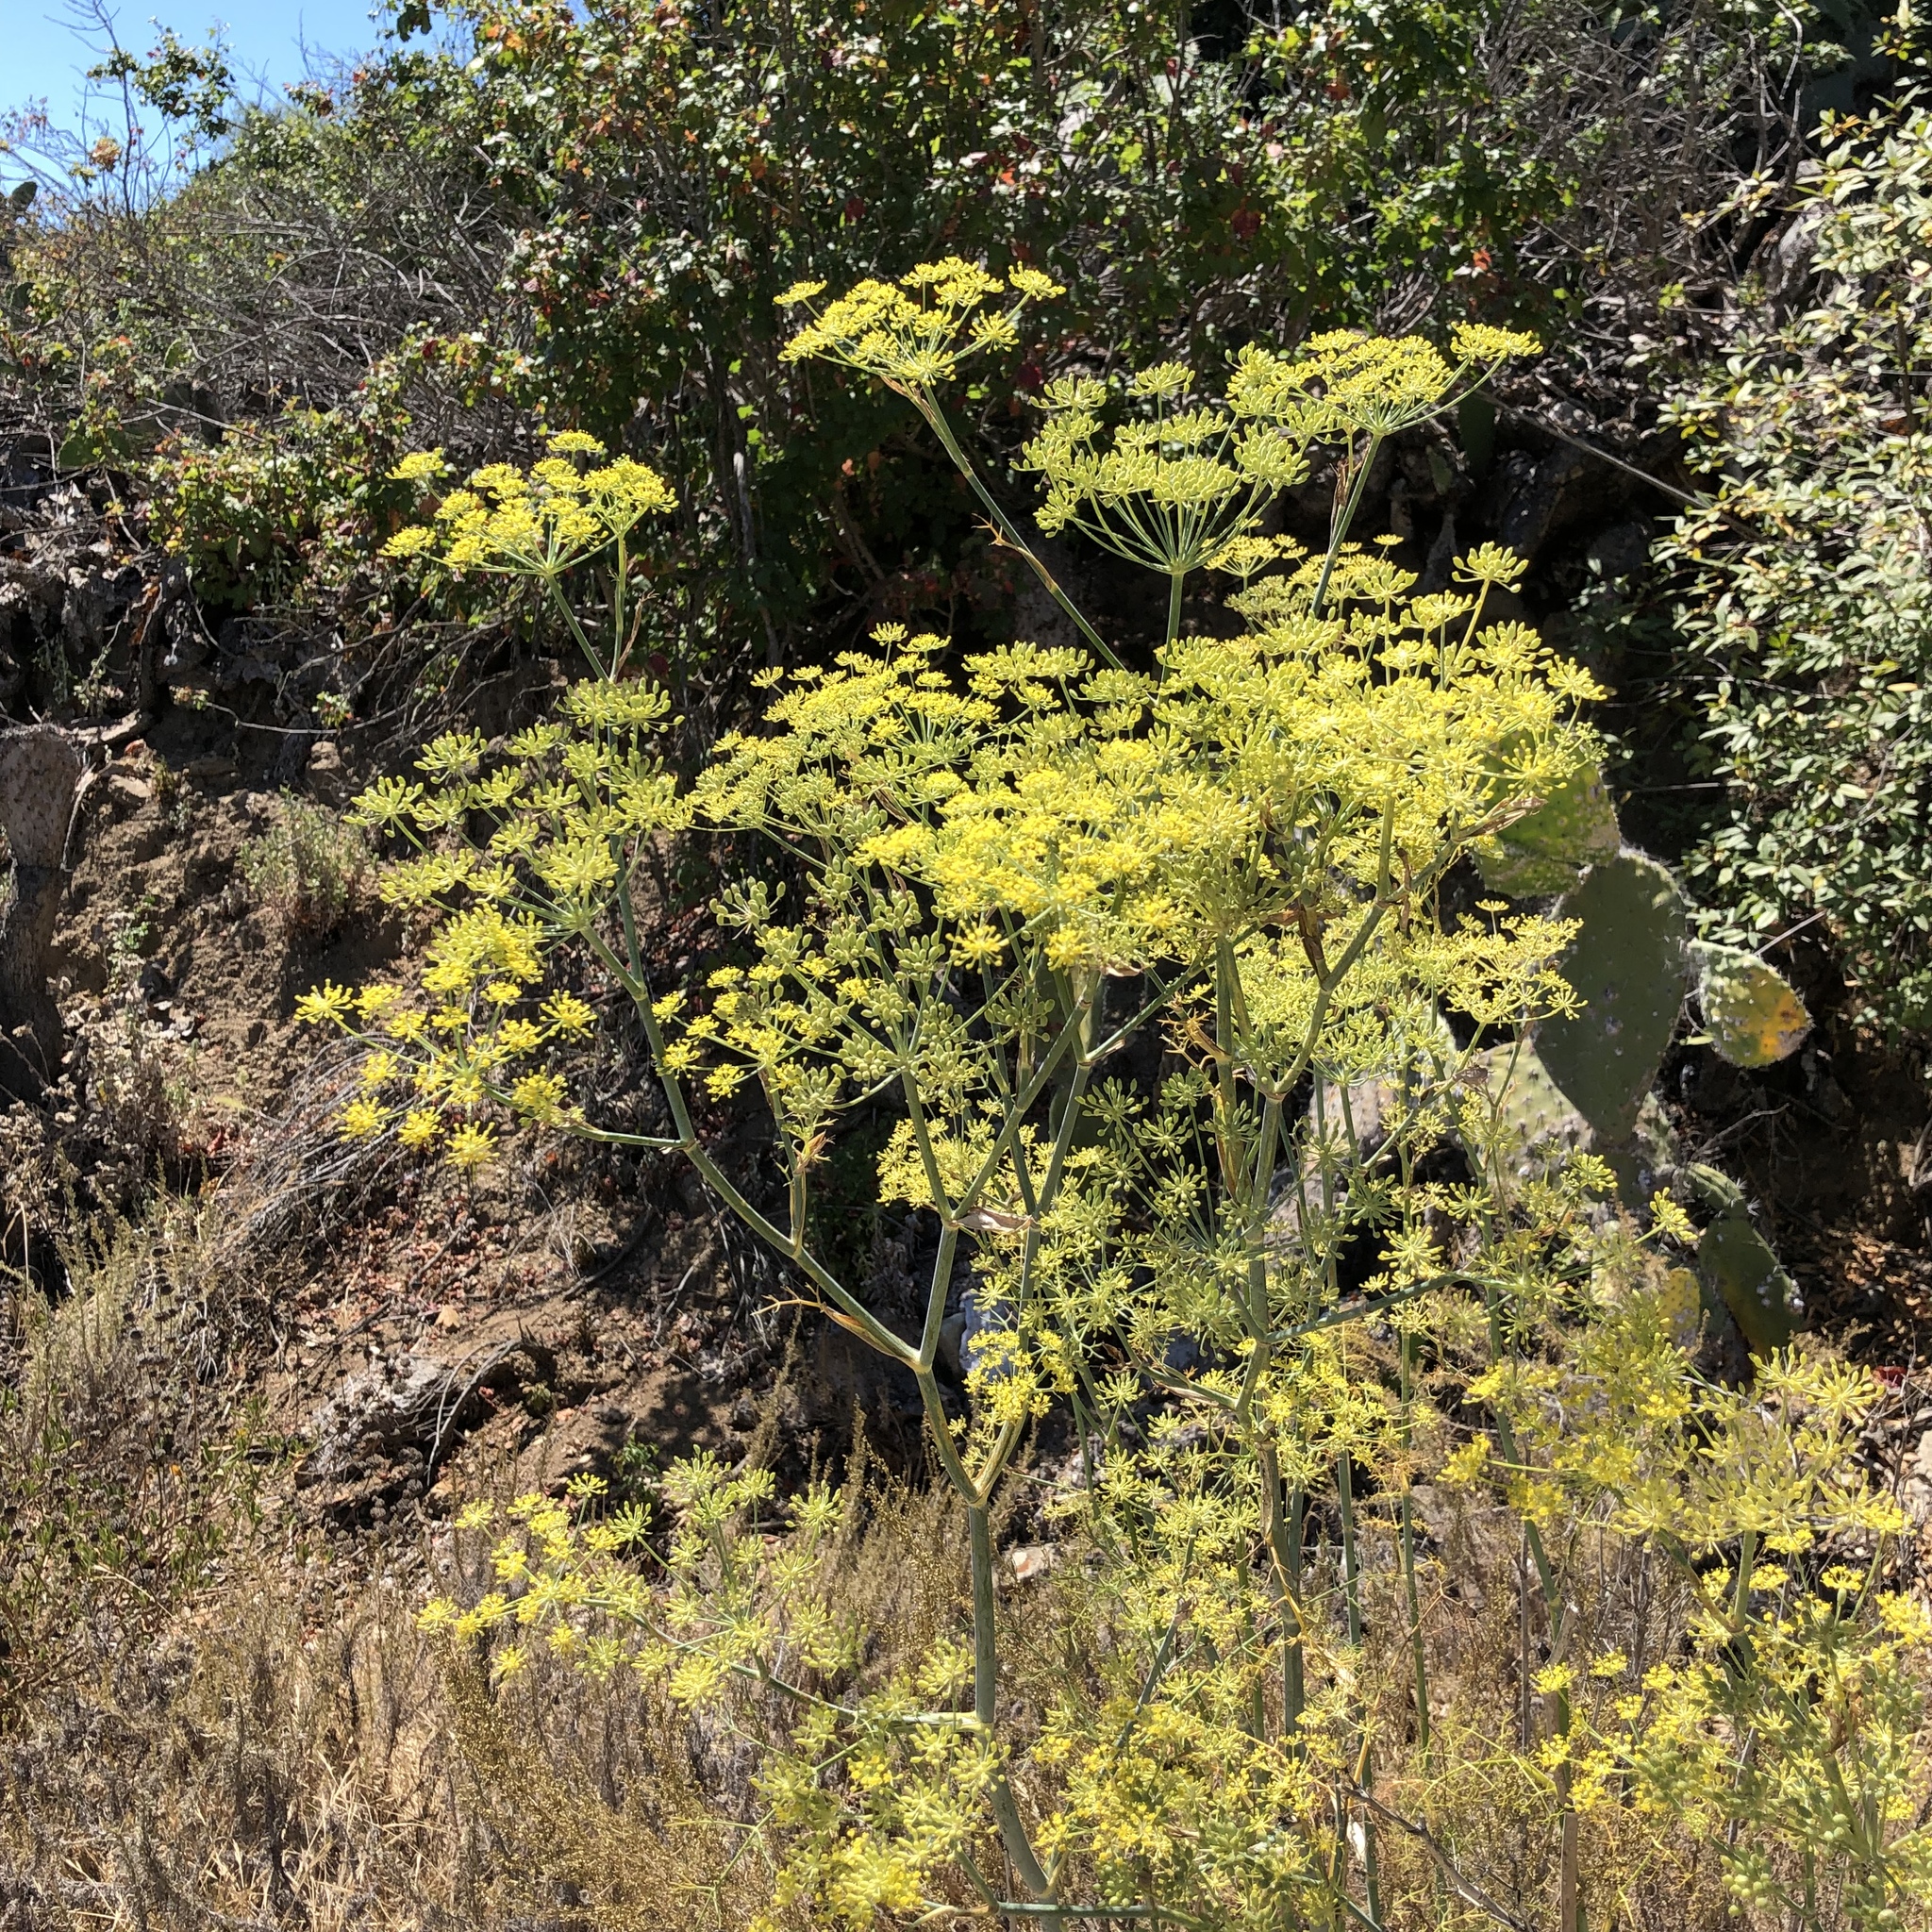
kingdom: Plantae
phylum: Tracheophyta
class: Magnoliopsida
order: Apiales
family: Apiaceae
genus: Foeniculum
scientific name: Foeniculum vulgare
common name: Fennel
